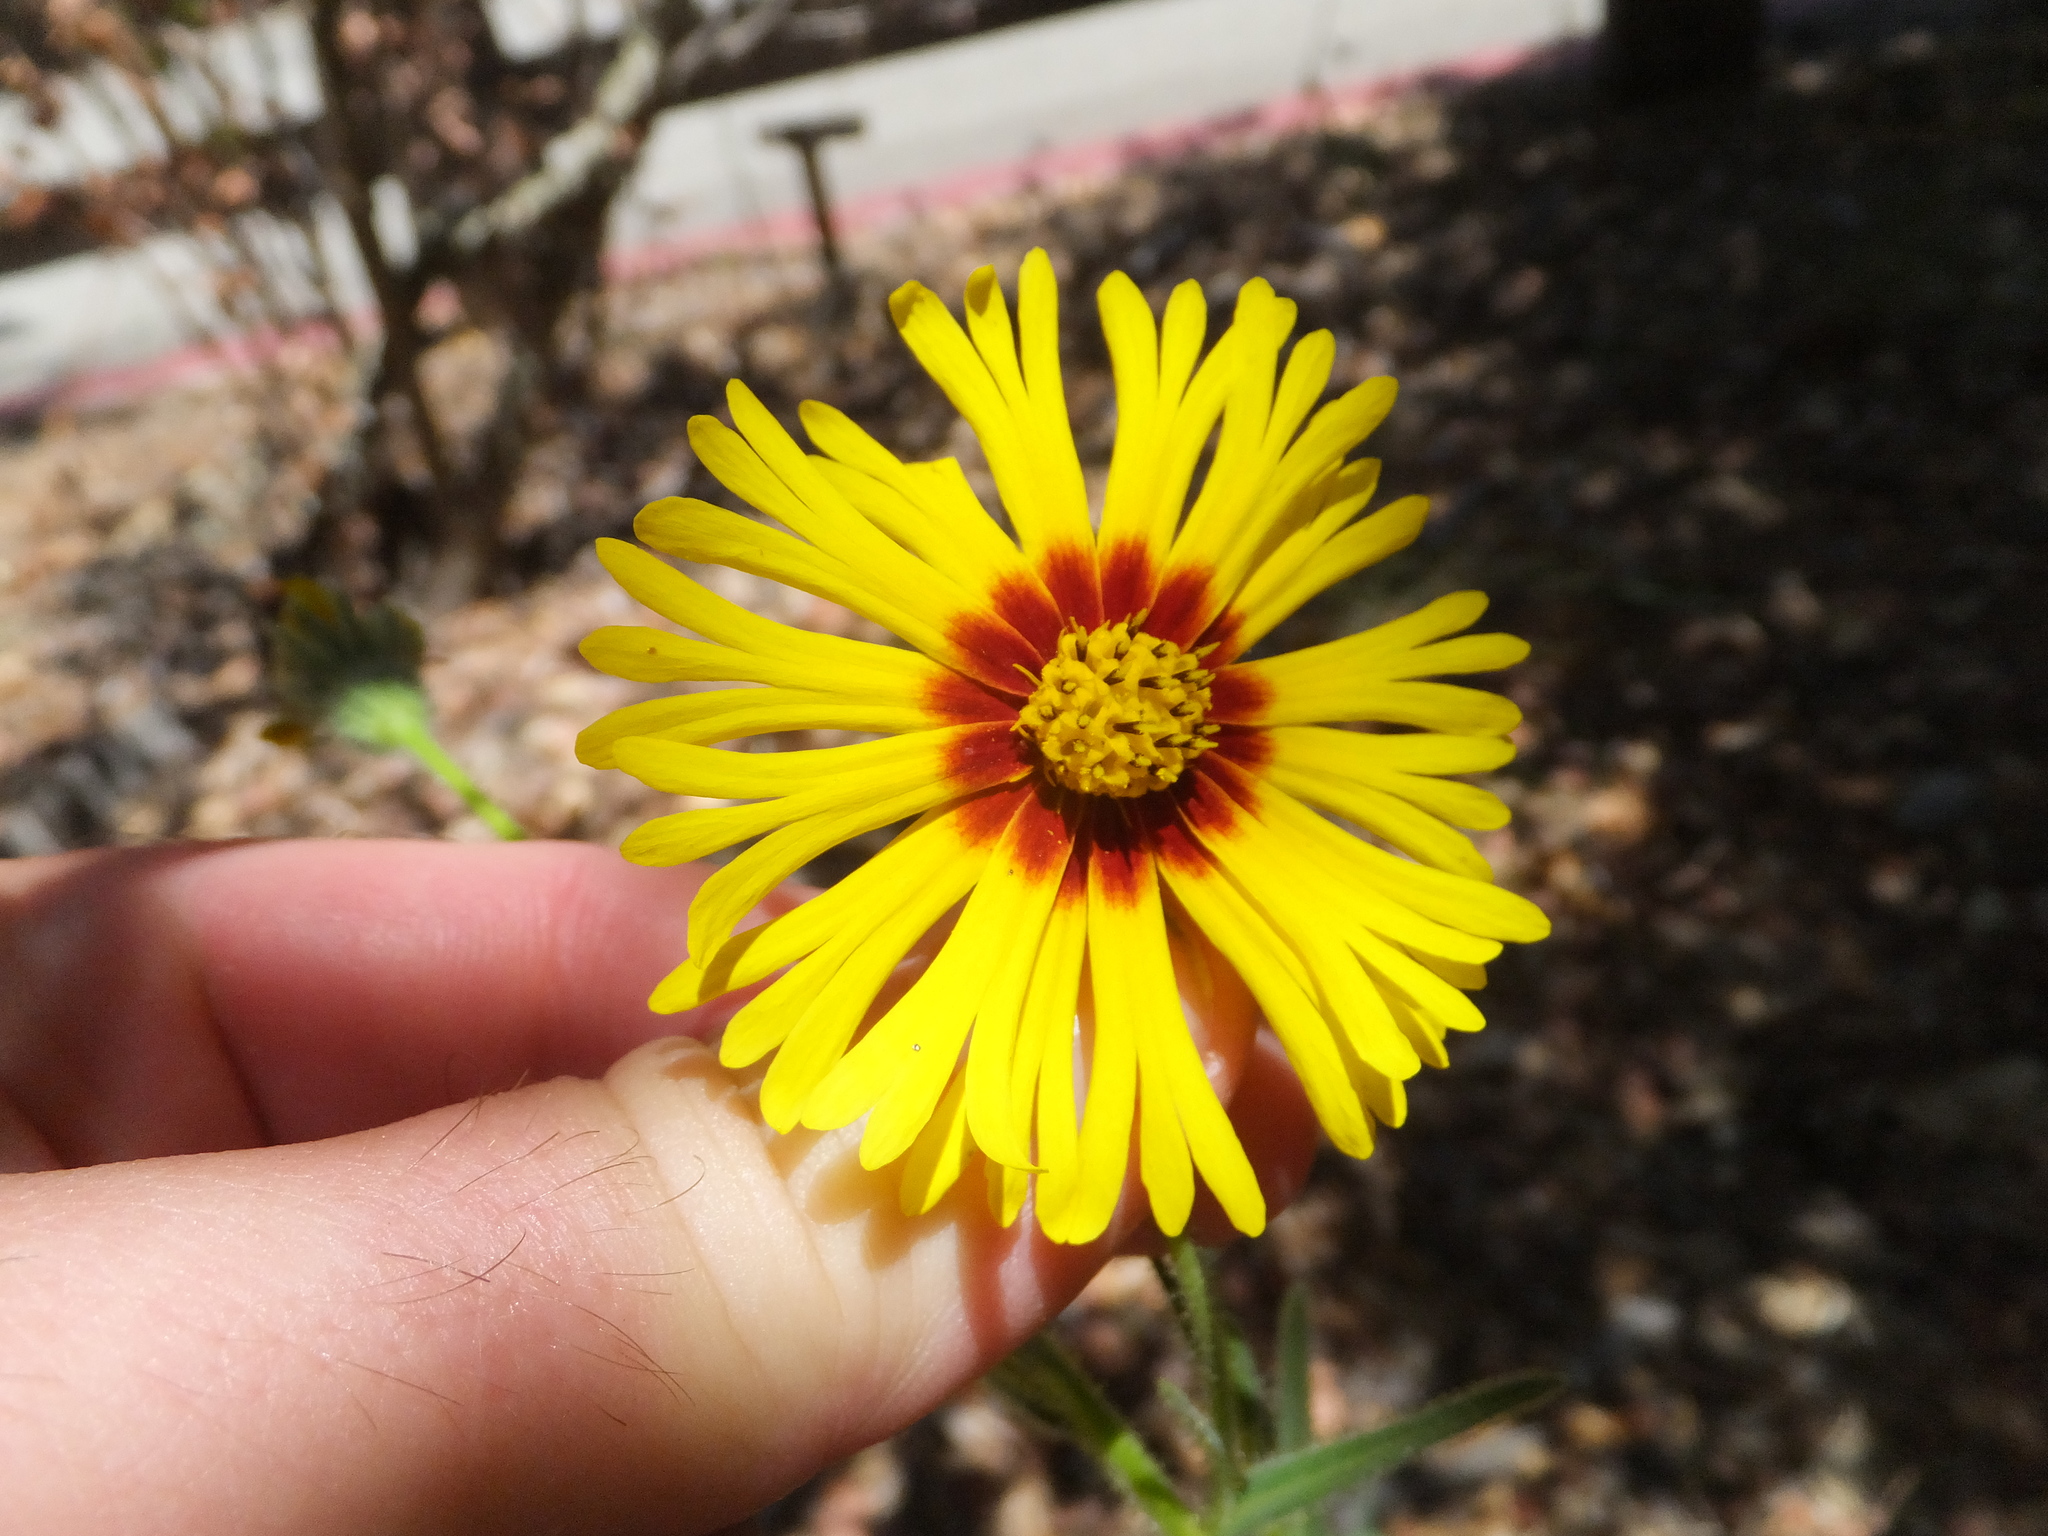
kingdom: Plantae
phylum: Tracheophyta
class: Magnoliopsida
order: Asterales
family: Asteraceae
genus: Madia
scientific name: Madia elegans
